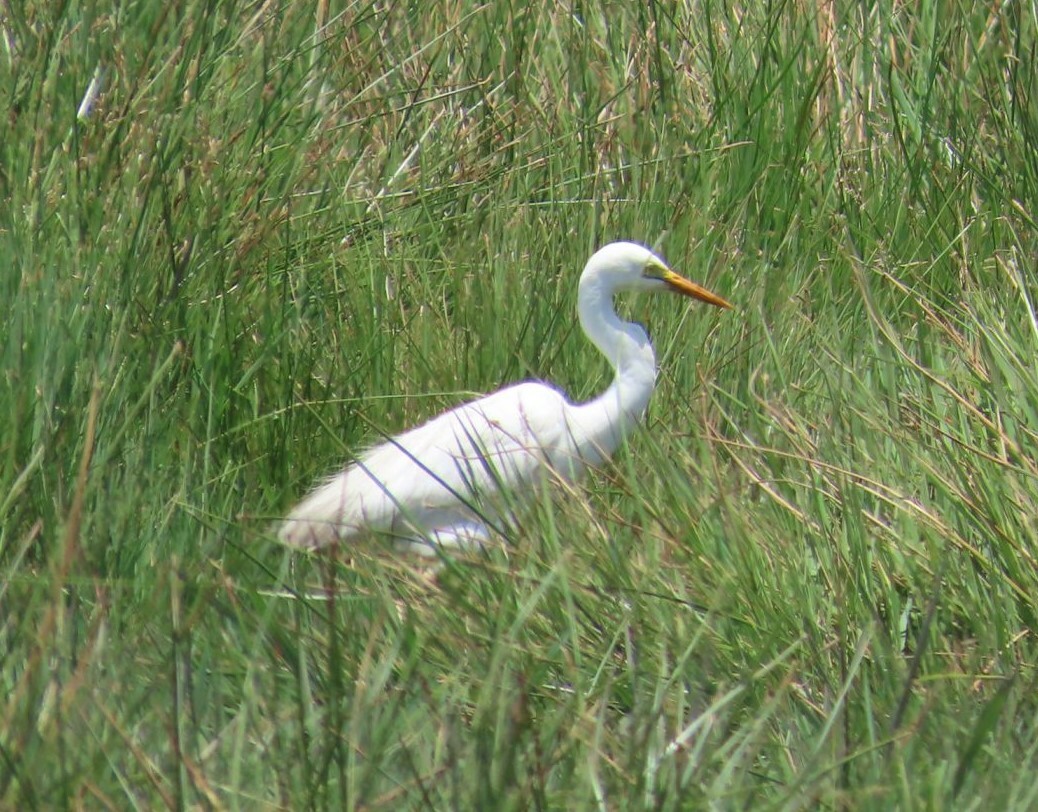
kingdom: Animalia
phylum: Chordata
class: Aves
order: Pelecaniformes
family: Ardeidae
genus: Egretta
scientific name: Egretta intermedia
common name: Intermediate egret
